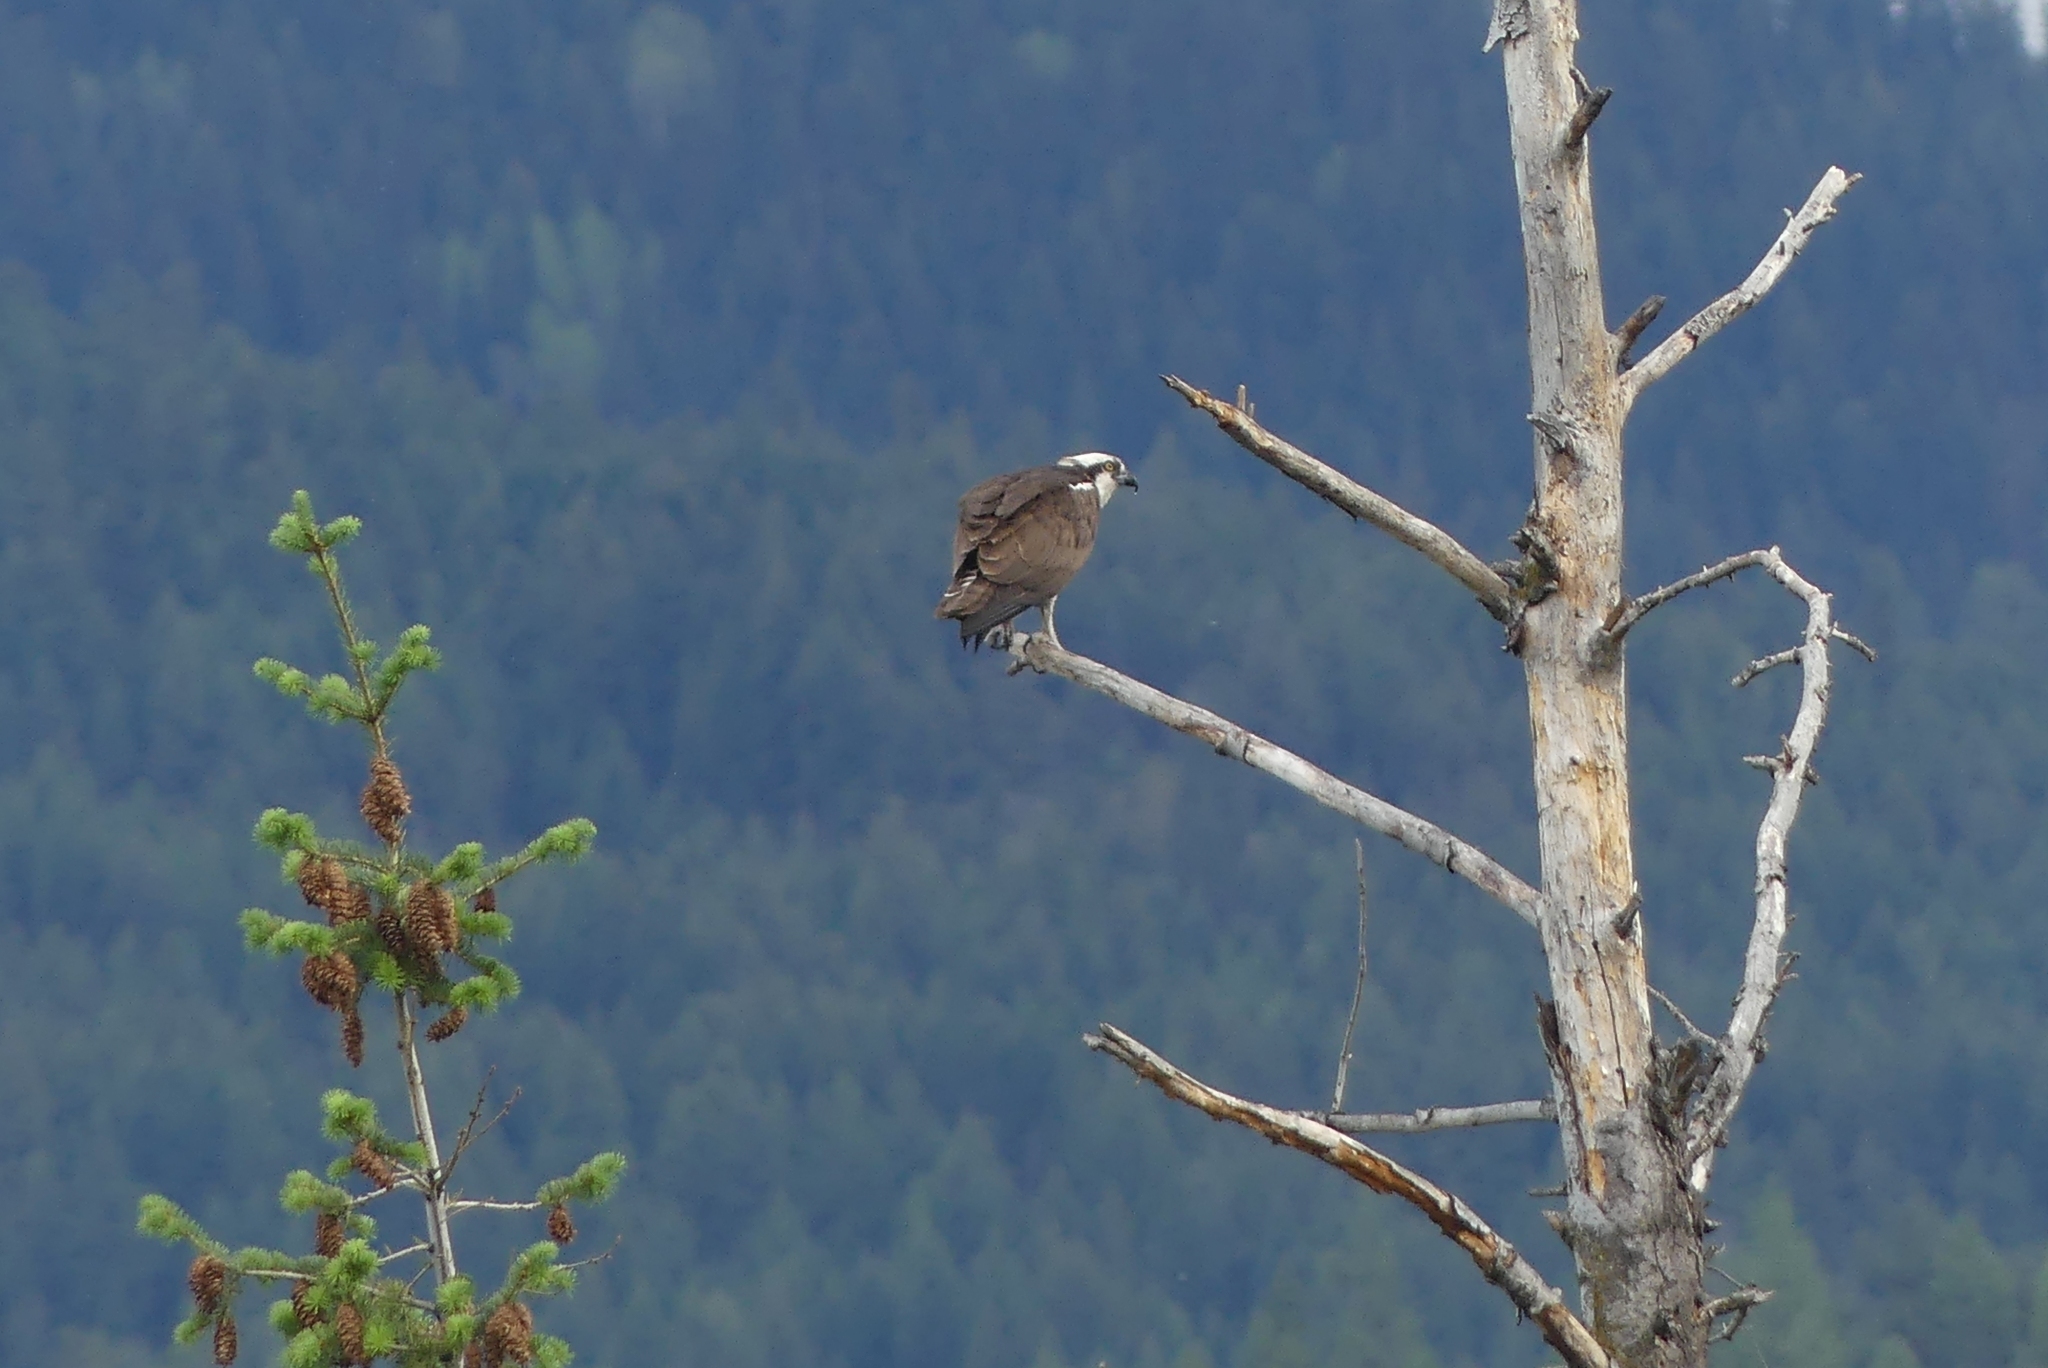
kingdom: Animalia
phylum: Chordata
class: Aves
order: Accipitriformes
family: Pandionidae
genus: Pandion
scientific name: Pandion haliaetus
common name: Osprey
